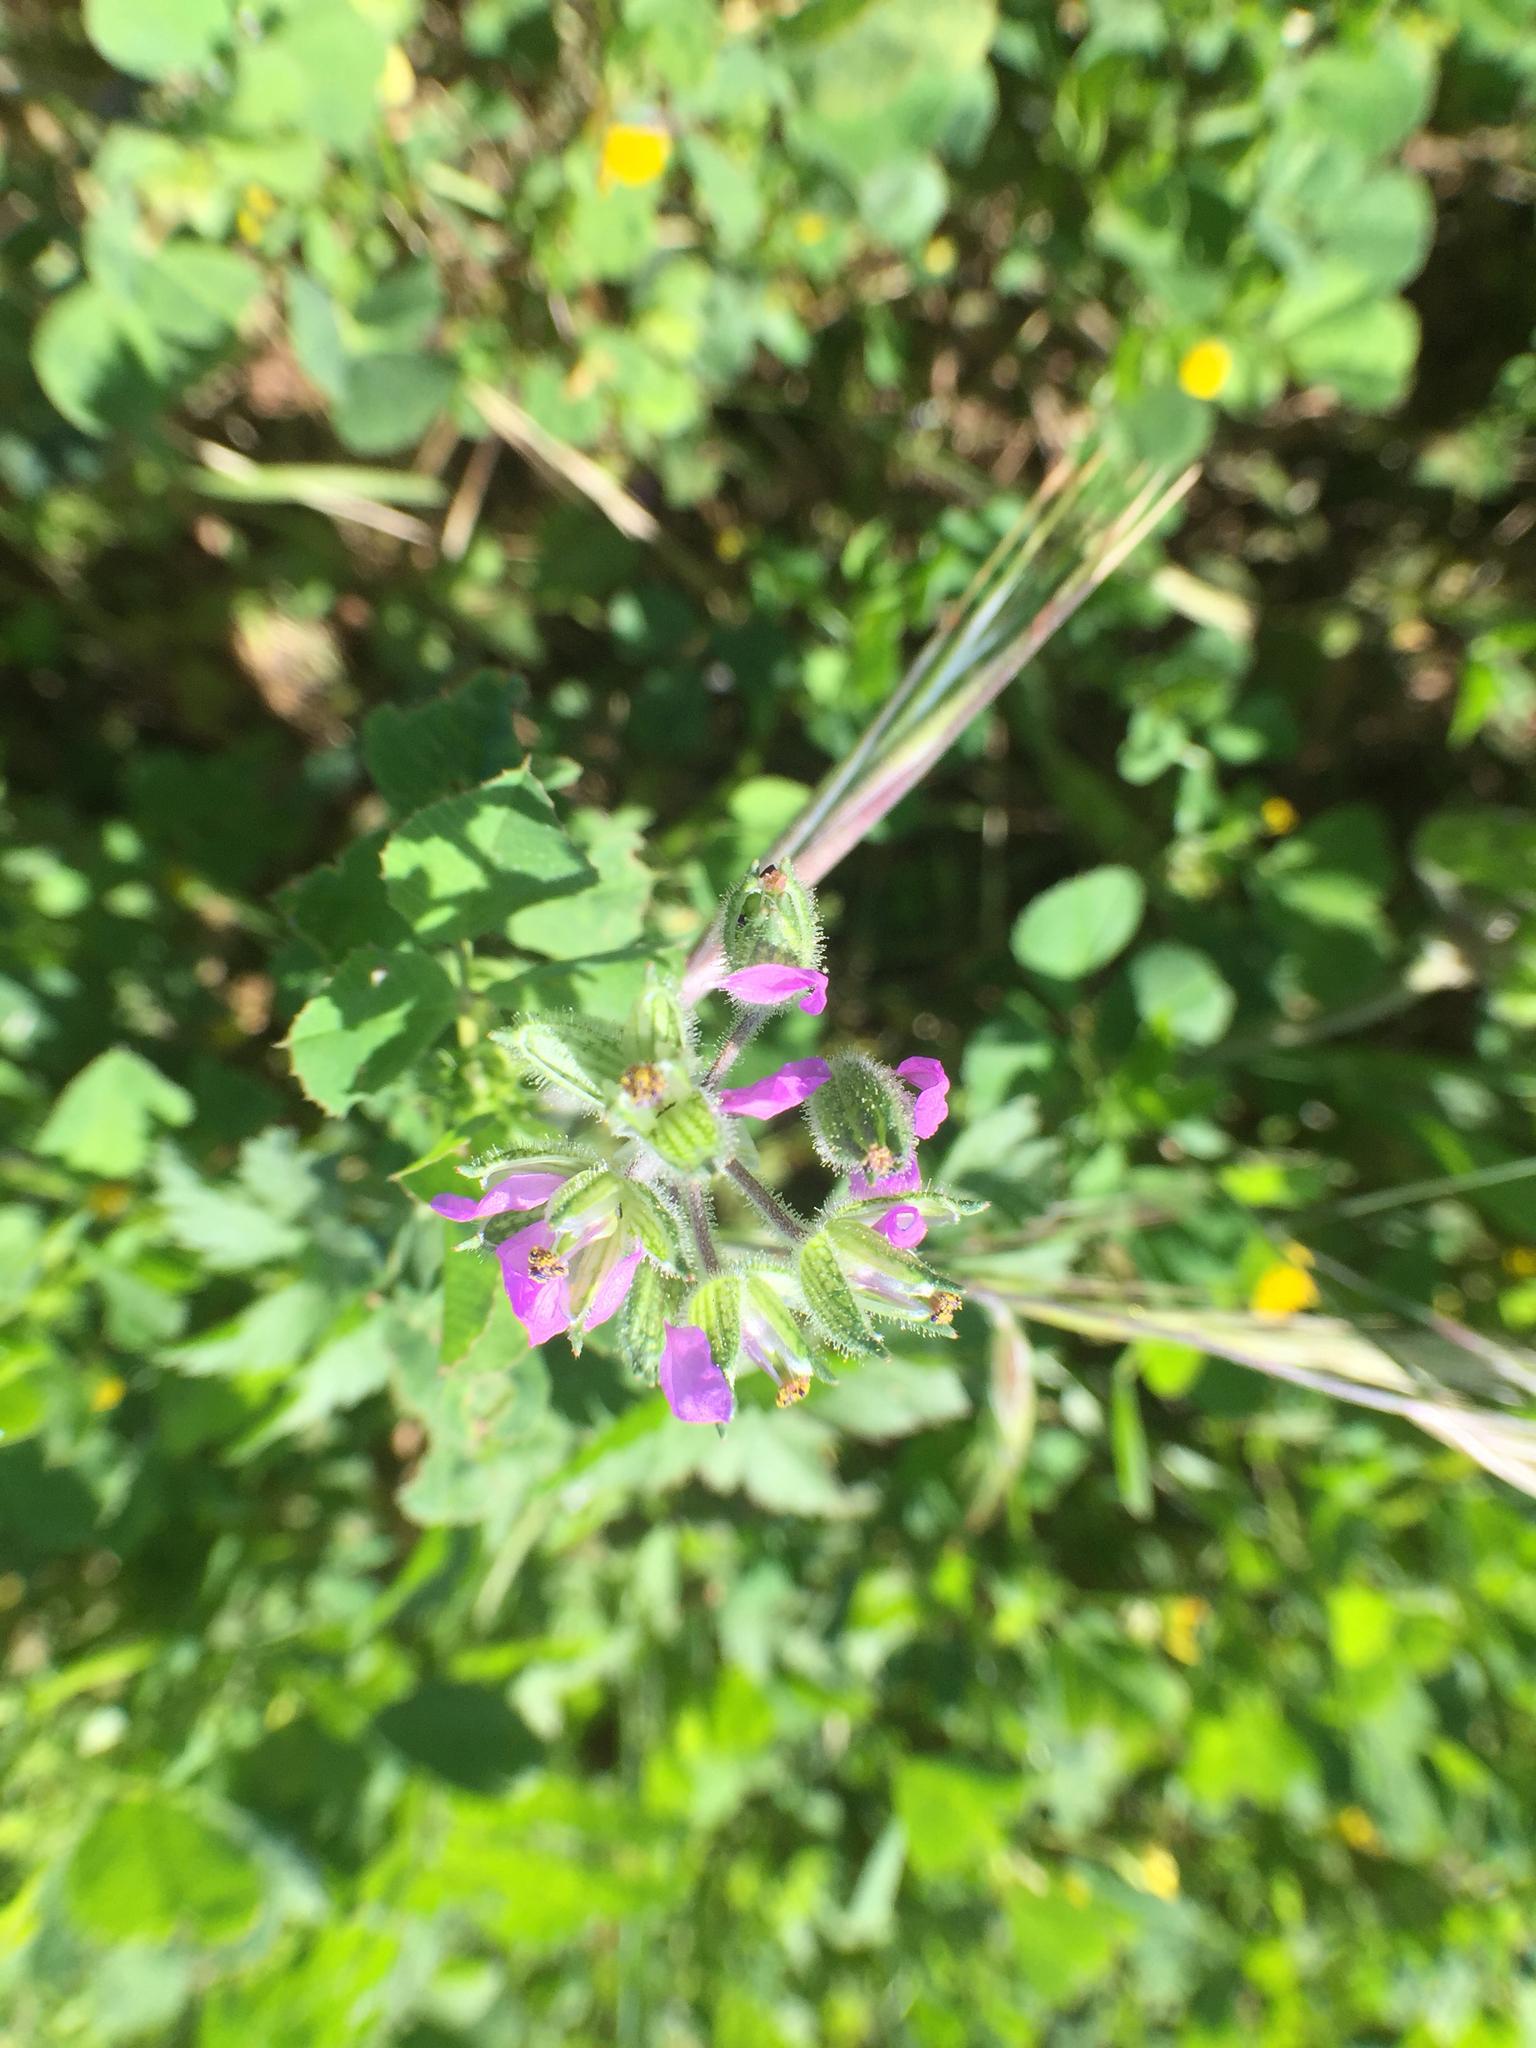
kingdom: Plantae
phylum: Tracheophyta
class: Magnoliopsida
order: Geraniales
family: Geraniaceae
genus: Erodium
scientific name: Erodium cicutarium
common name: Common stork's-bill
